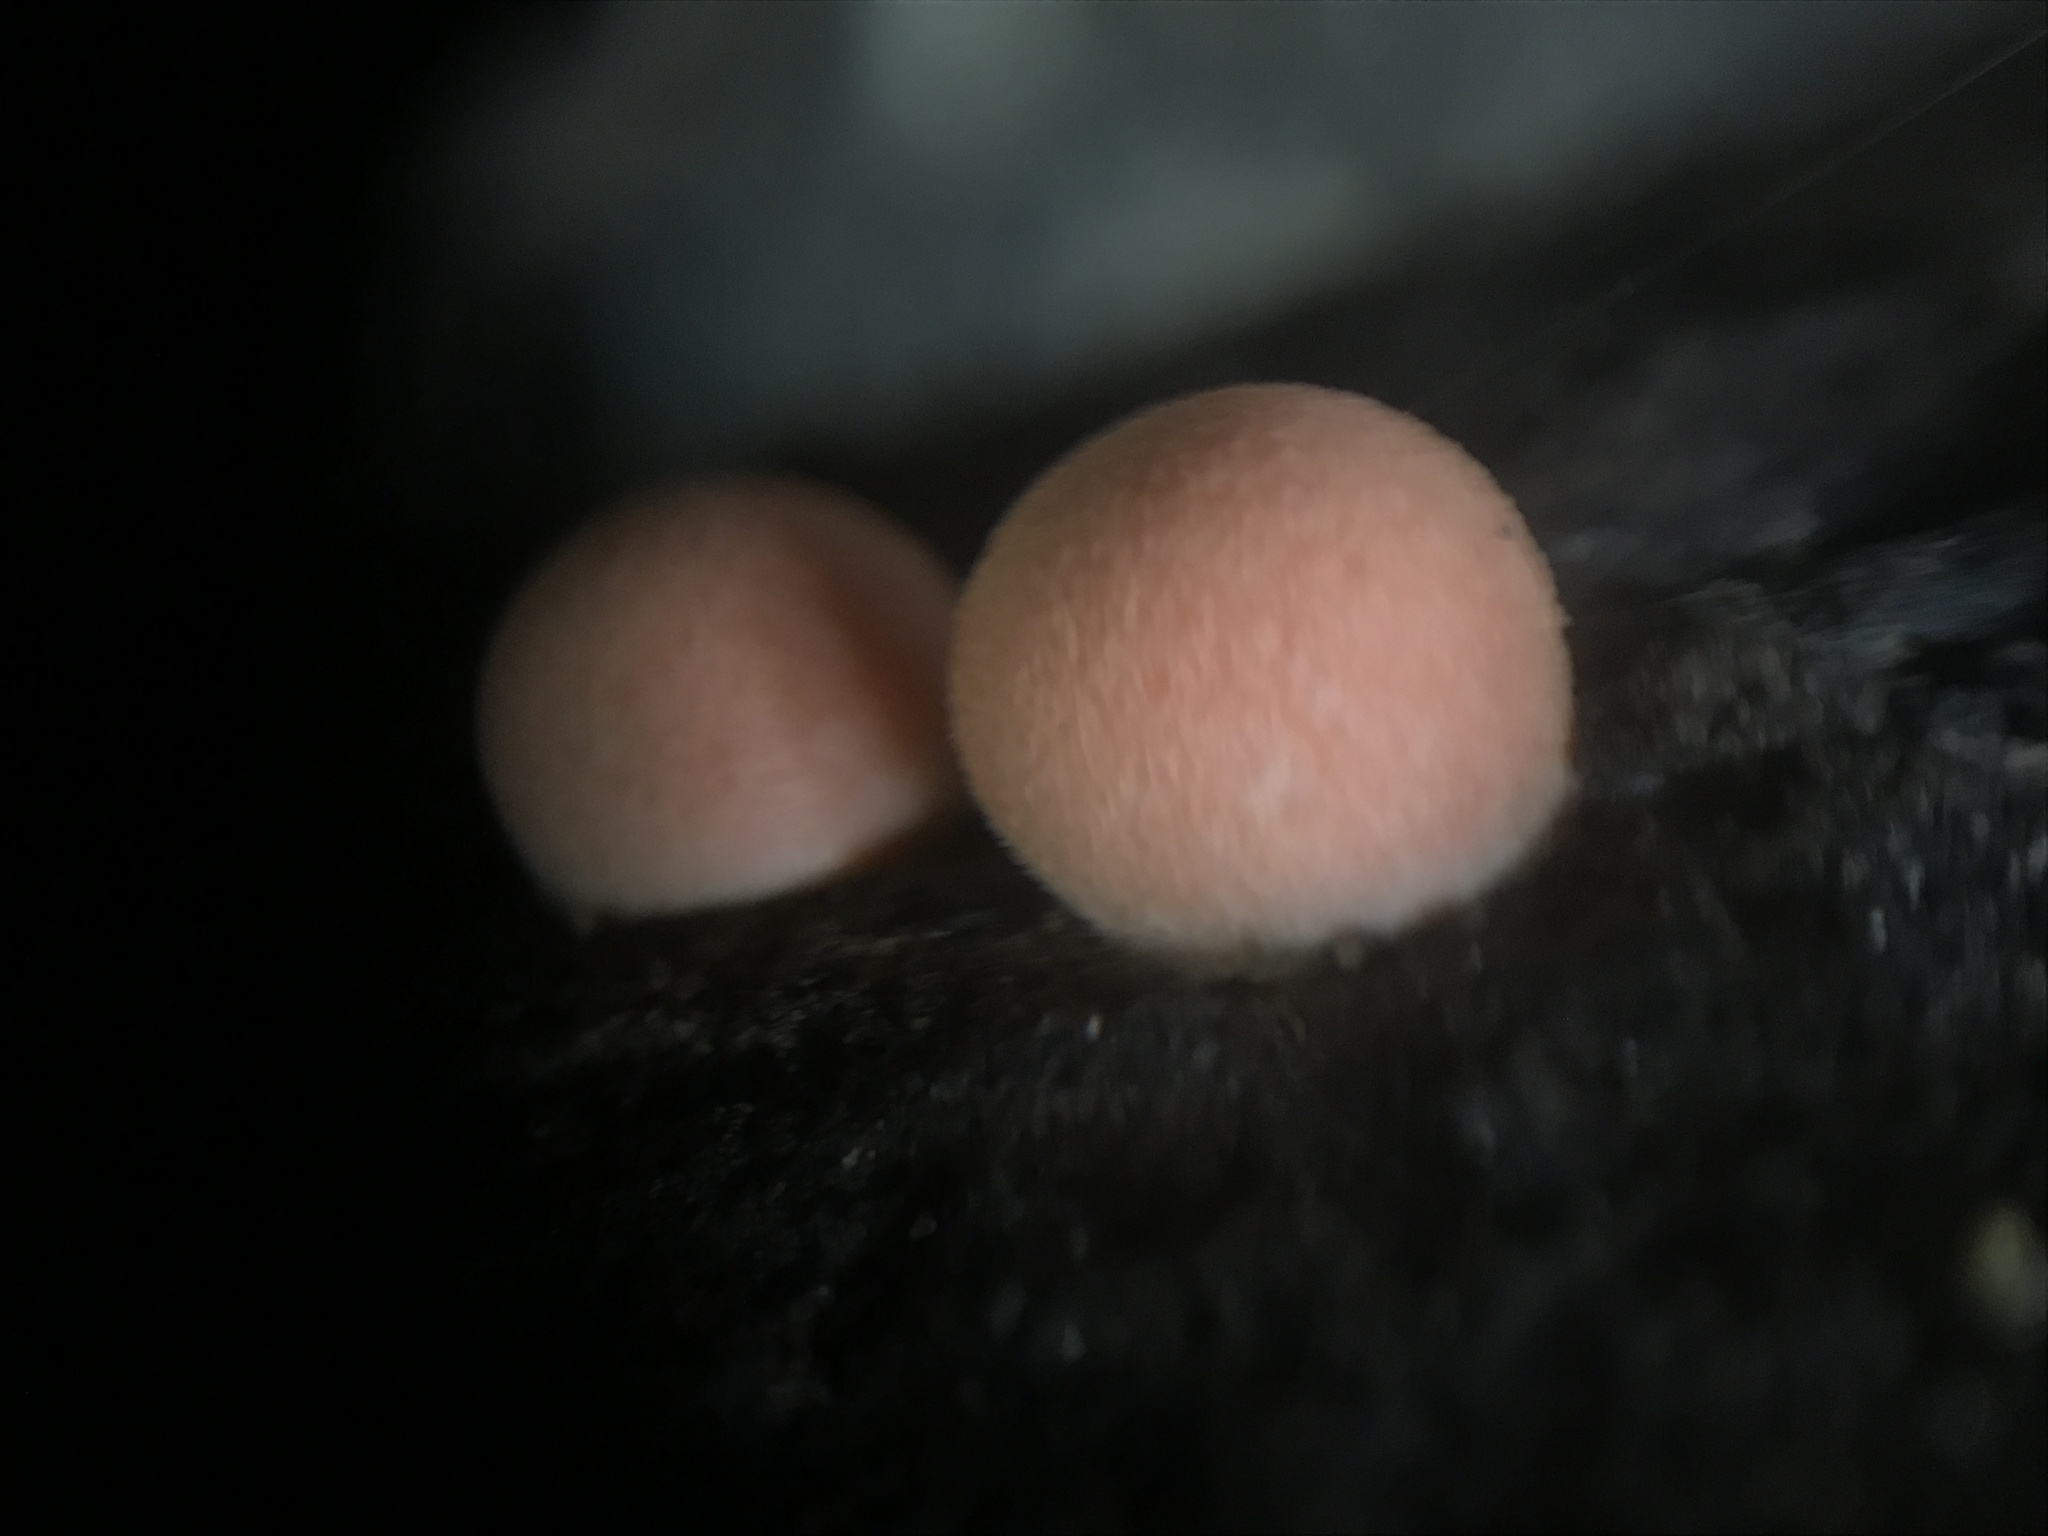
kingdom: Protozoa
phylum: Mycetozoa
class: Myxomycetes
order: Cribrariales
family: Tubiferaceae
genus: Lycogala
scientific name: Lycogala epidendrum
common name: Wolf's milk
